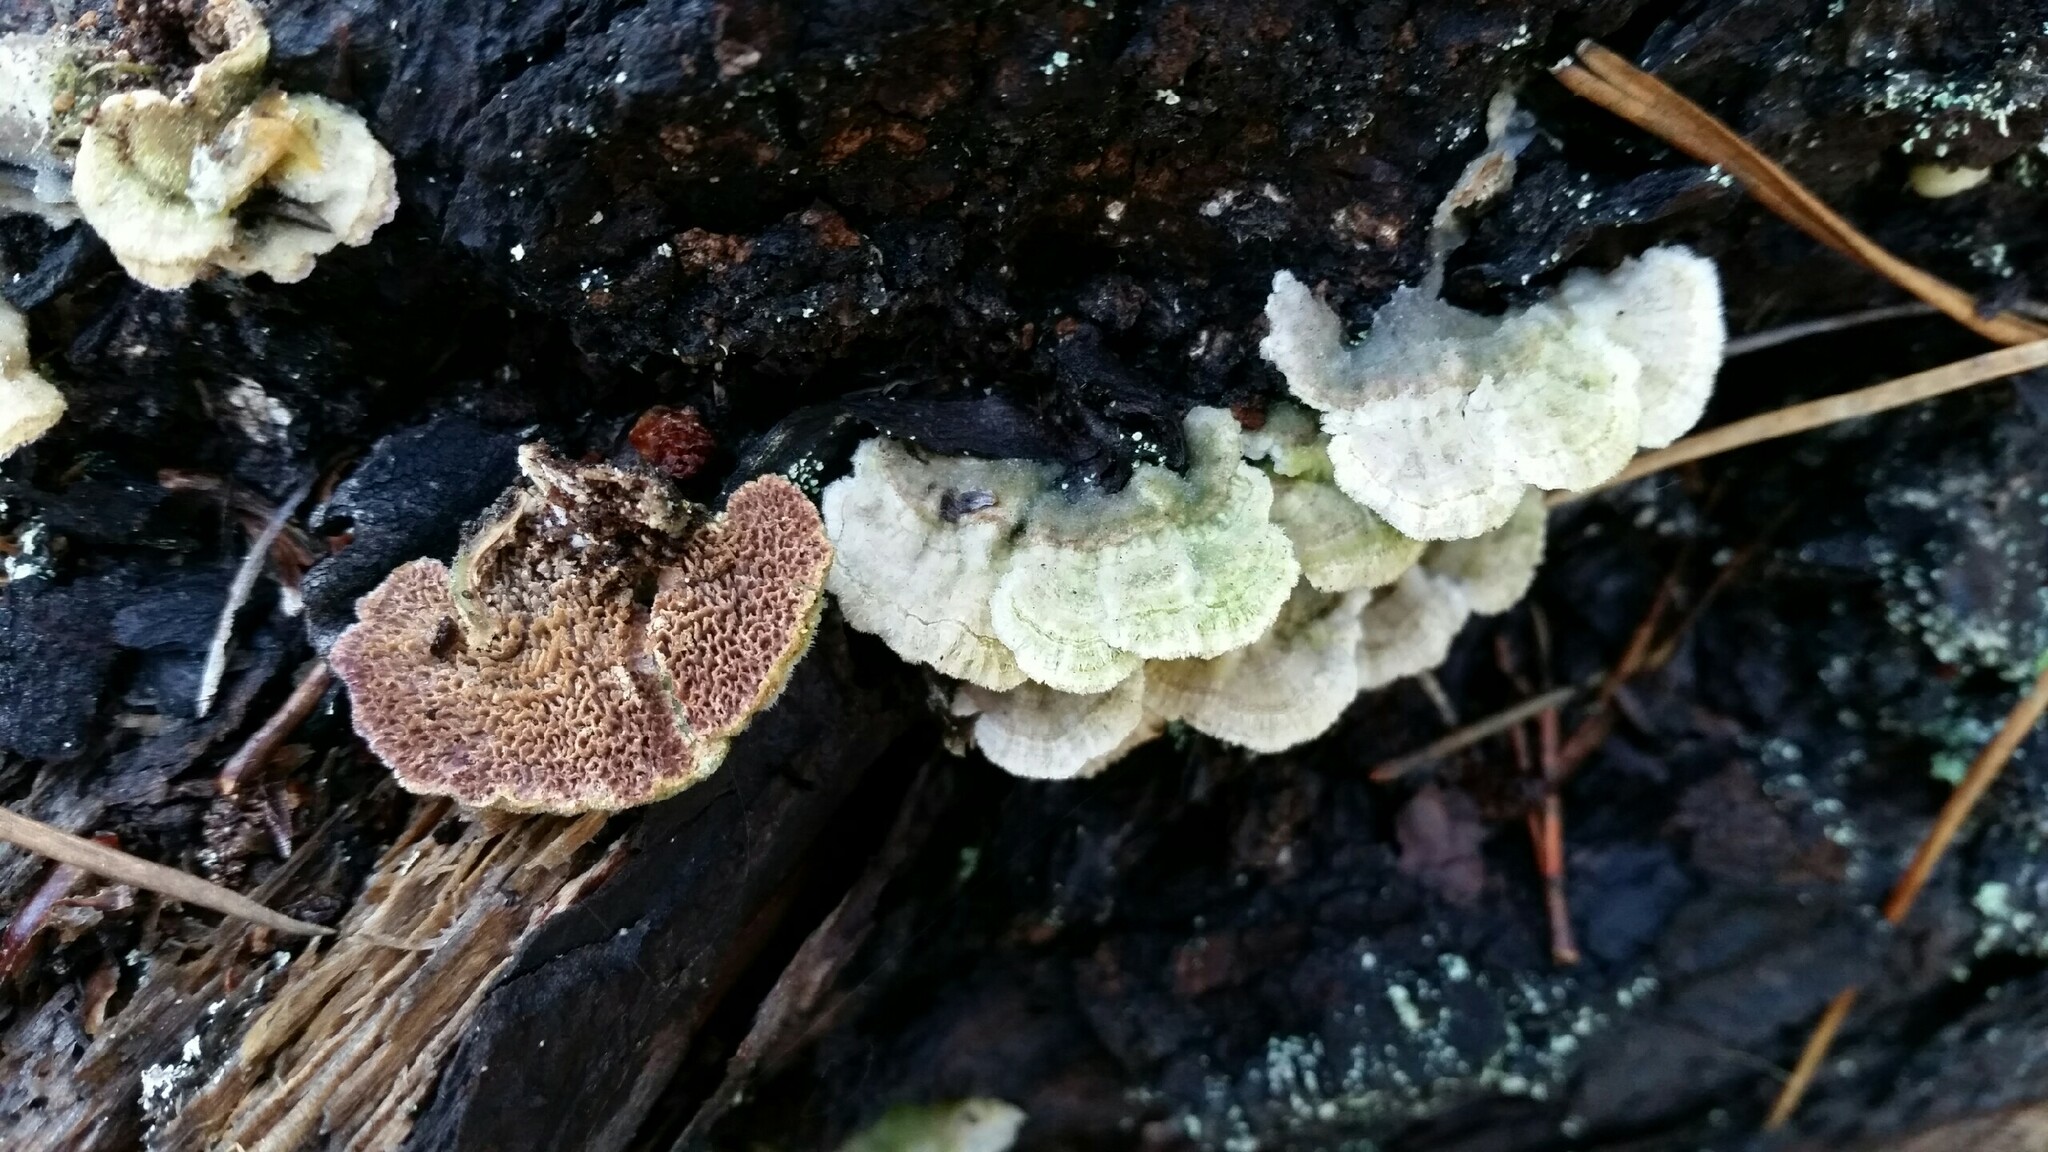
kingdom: Fungi
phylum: Basidiomycota
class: Agaricomycetes
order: Hymenochaetales
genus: Trichaptum
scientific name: Trichaptum abietinum
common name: Purplepore bracket
